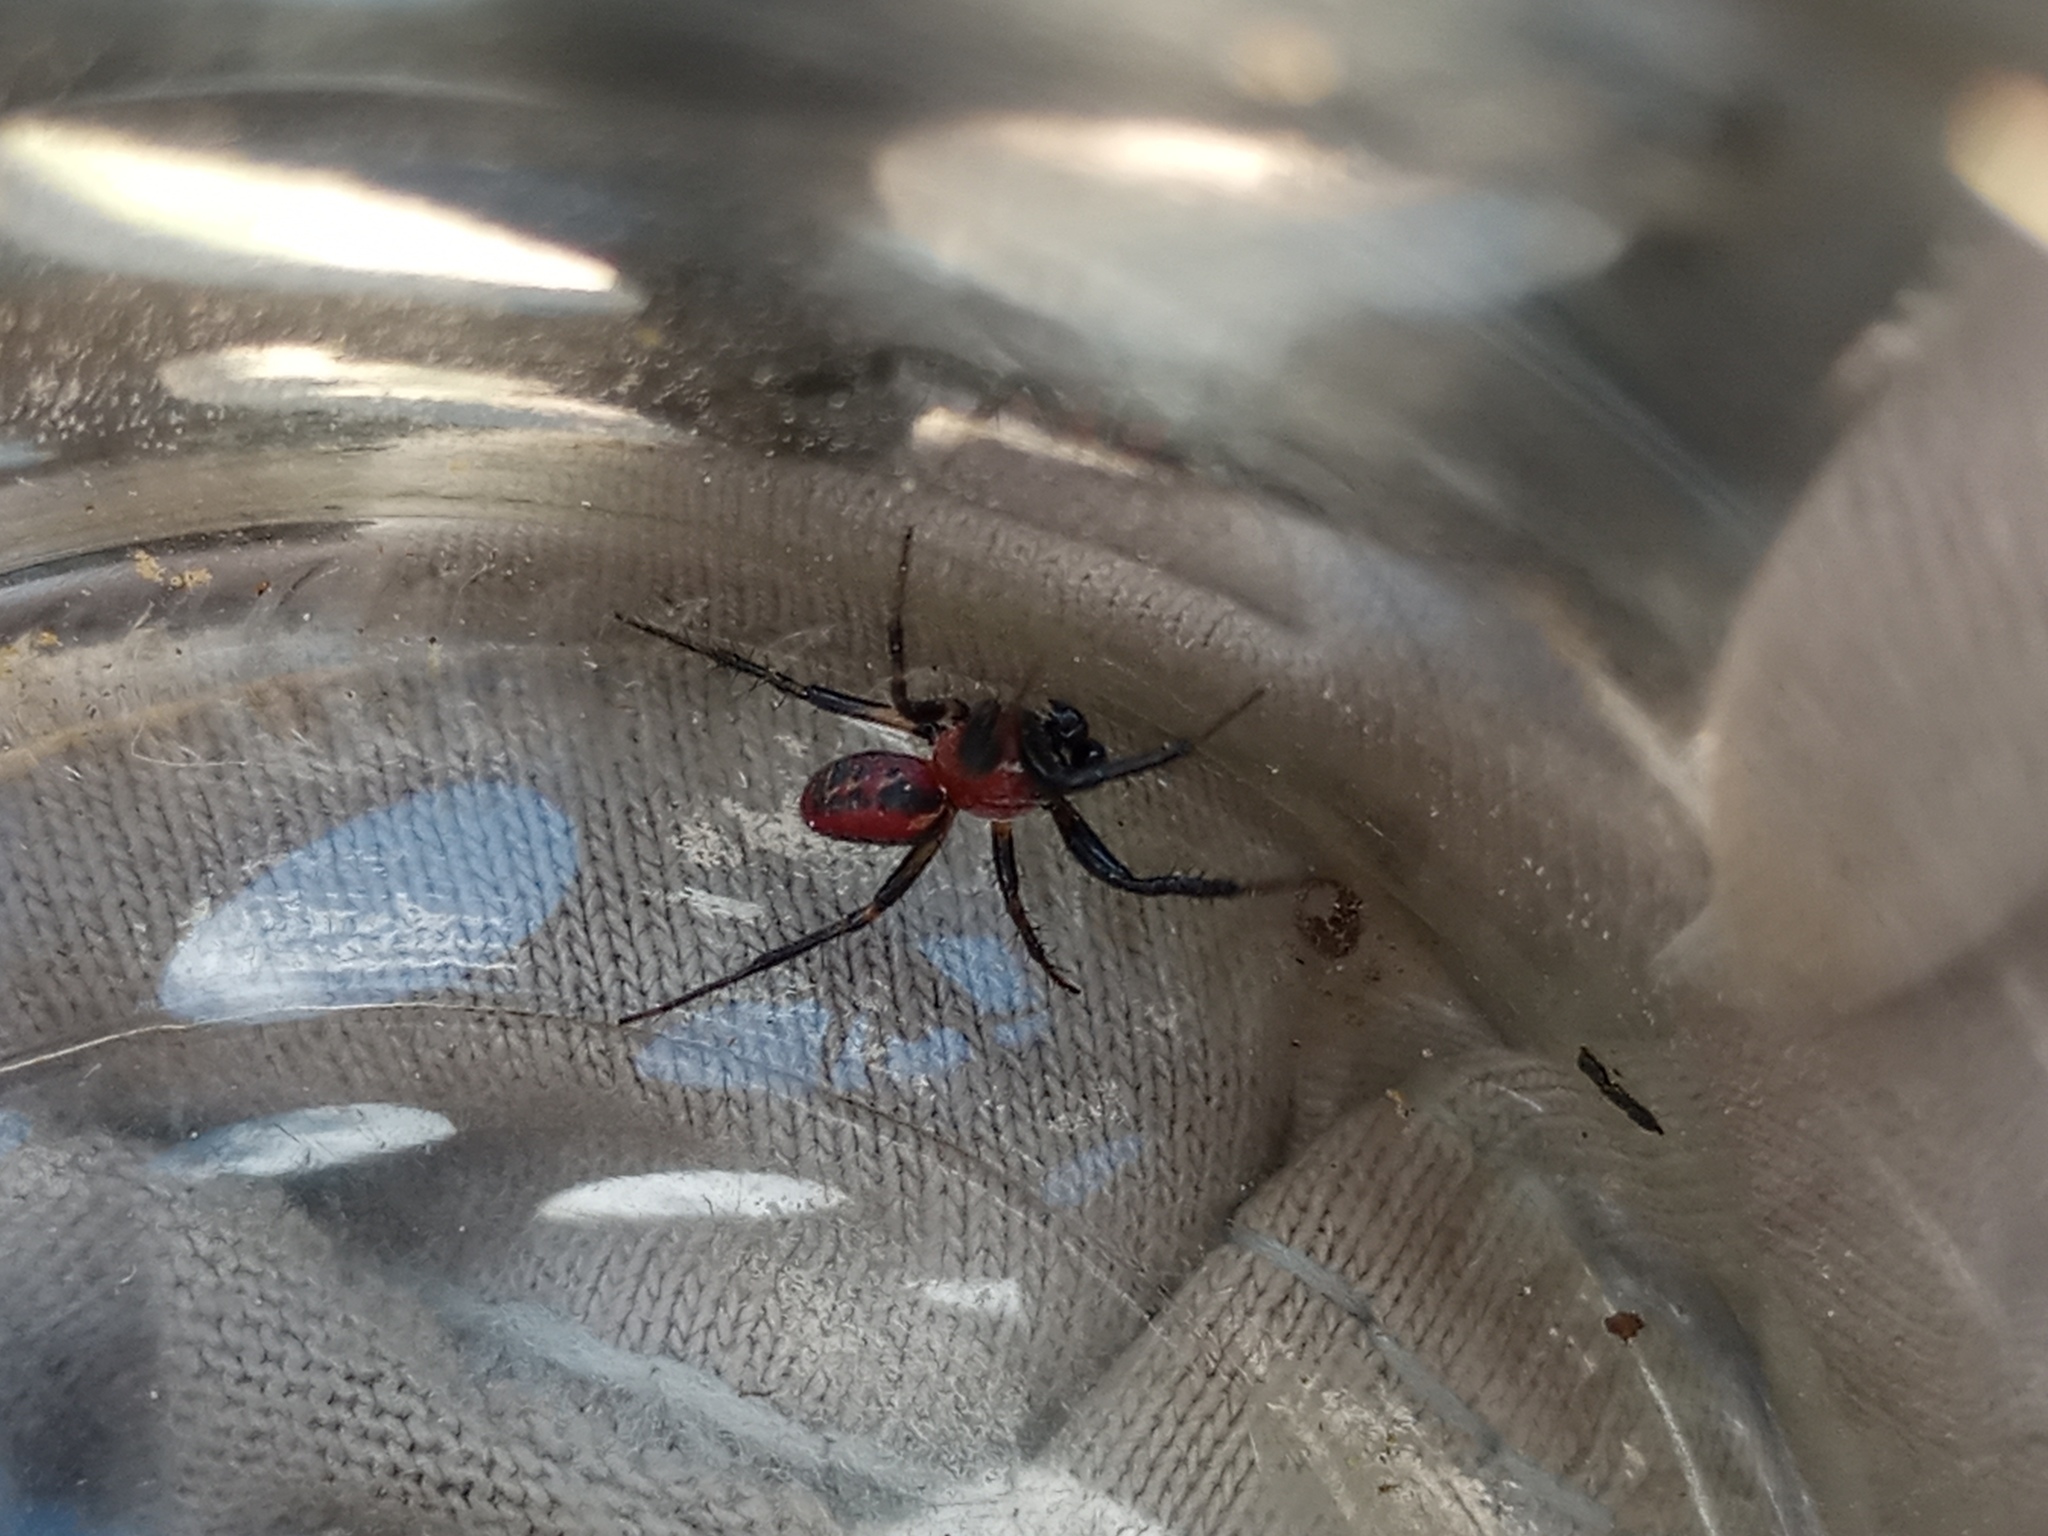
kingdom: Animalia
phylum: Arthropoda
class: Arachnida
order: Araneae
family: Araneidae
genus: Alpaida
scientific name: Alpaida versicolor
